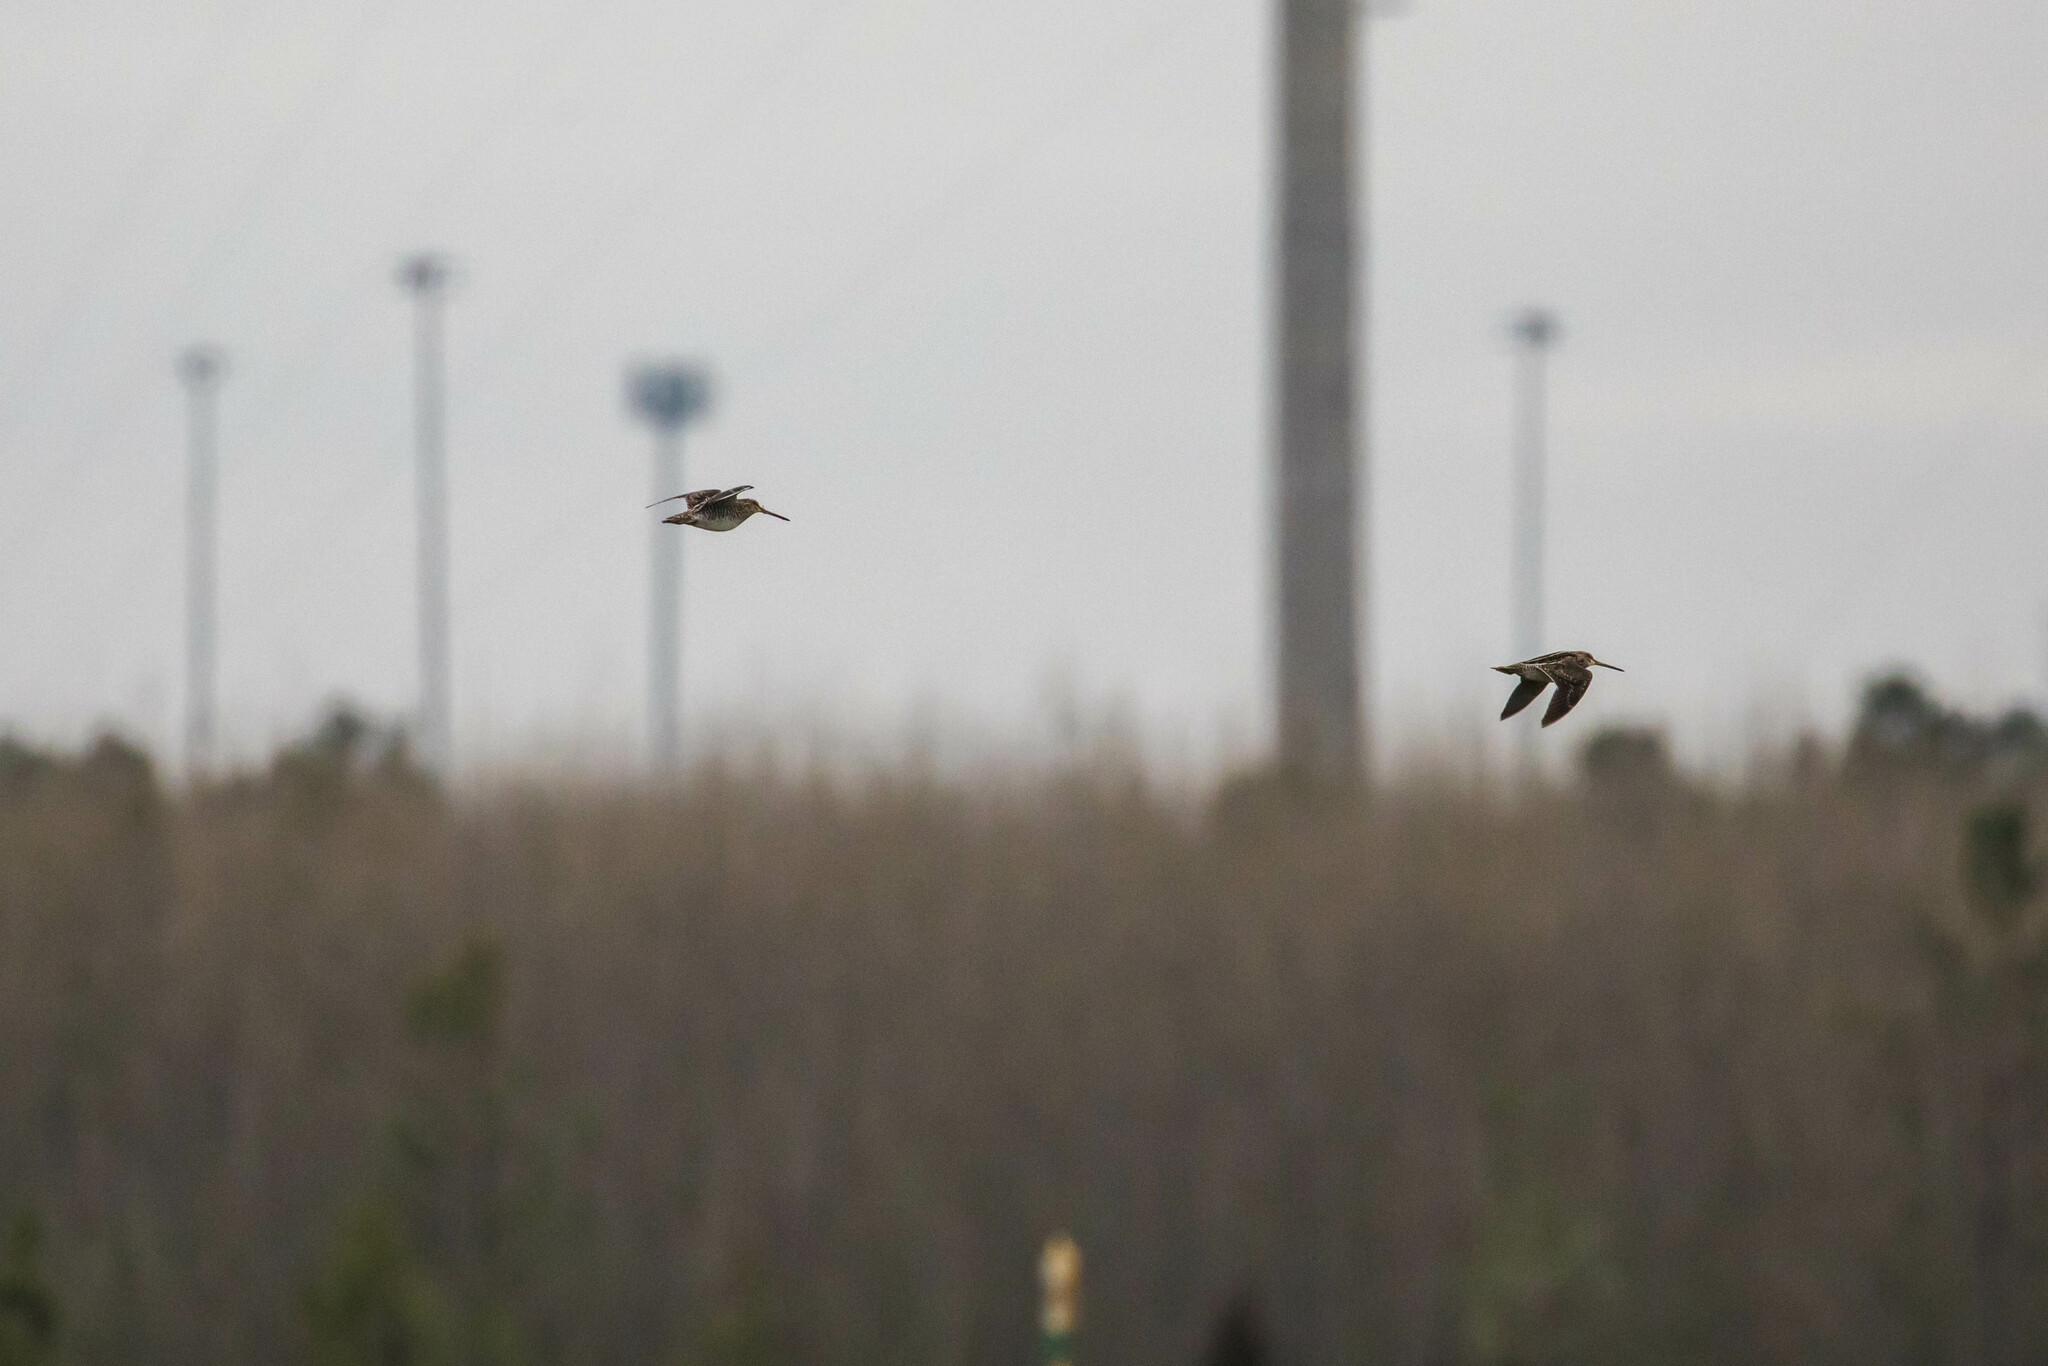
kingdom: Animalia
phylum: Chordata
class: Aves
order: Charadriiformes
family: Scolopacidae
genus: Gallinago
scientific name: Gallinago delicata
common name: Wilson's snipe
